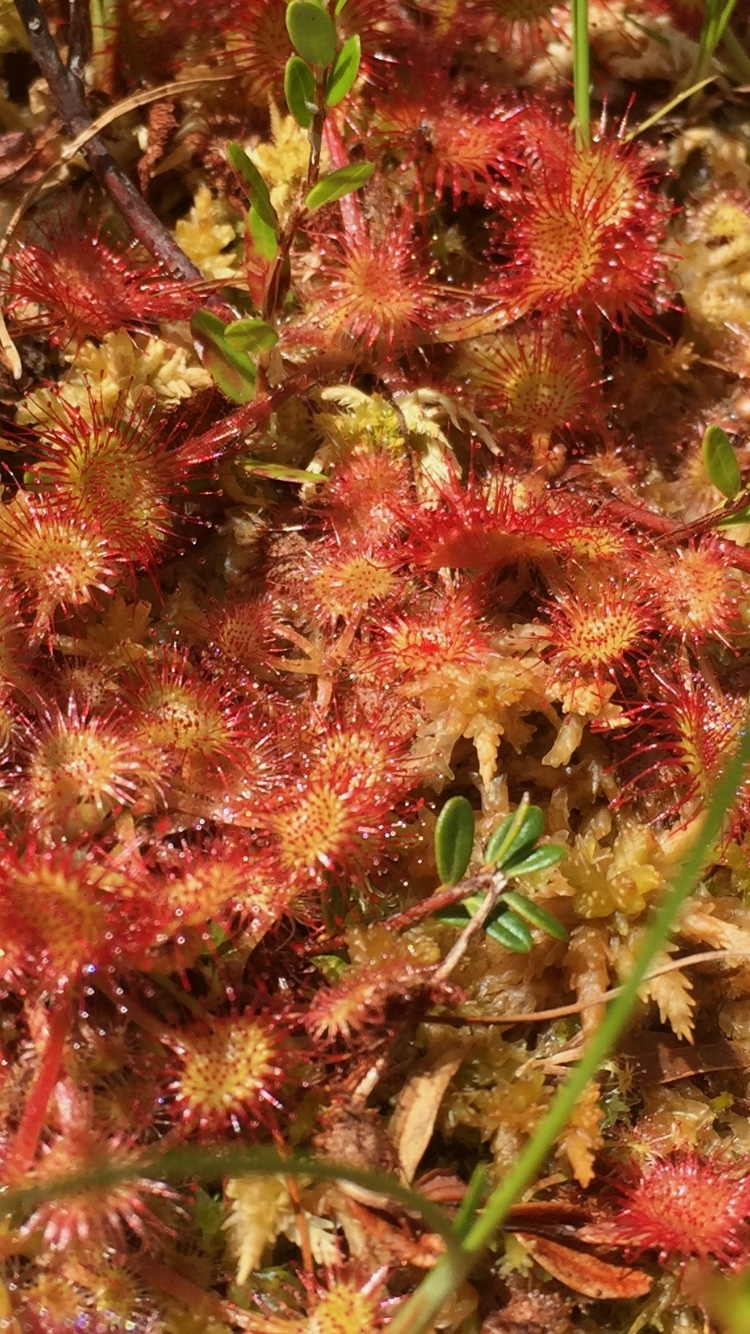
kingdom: Plantae
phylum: Tracheophyta
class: Magnoliopsida
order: Caryophyllales
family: Droseraceae
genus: Drosera
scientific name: Drosera rotundifolia
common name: Round-leaved sundew
